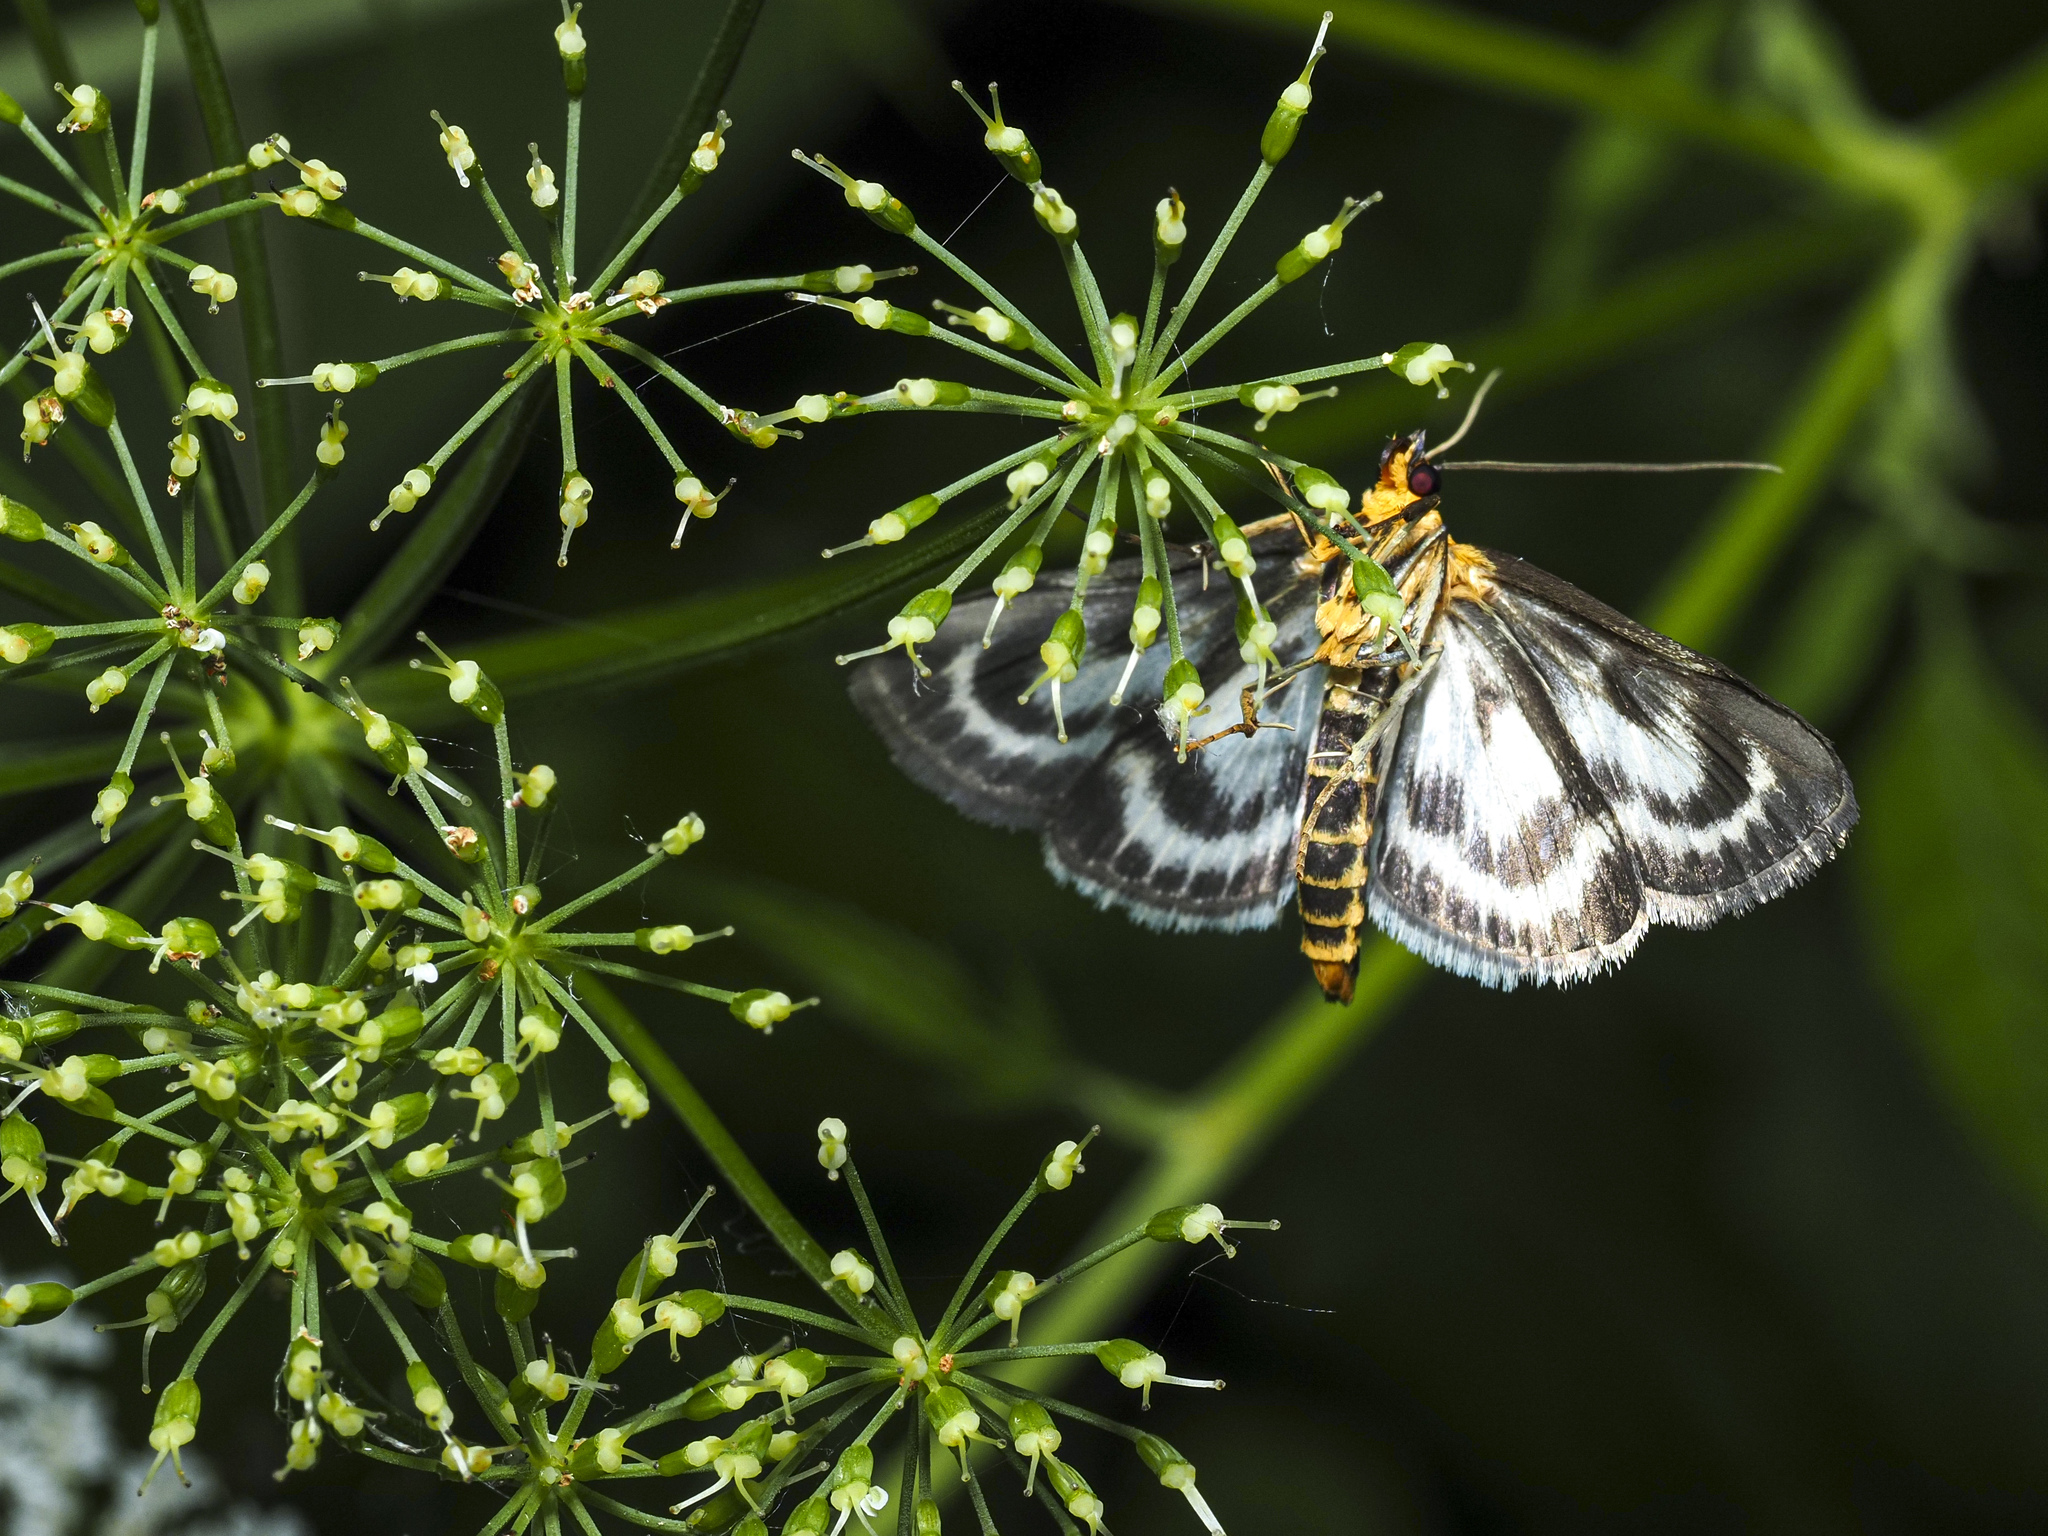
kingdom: Animalia
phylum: Arthropoda
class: Insecta
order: Lepidoptera
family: Crambidae
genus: Anania
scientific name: Anania hortulata
